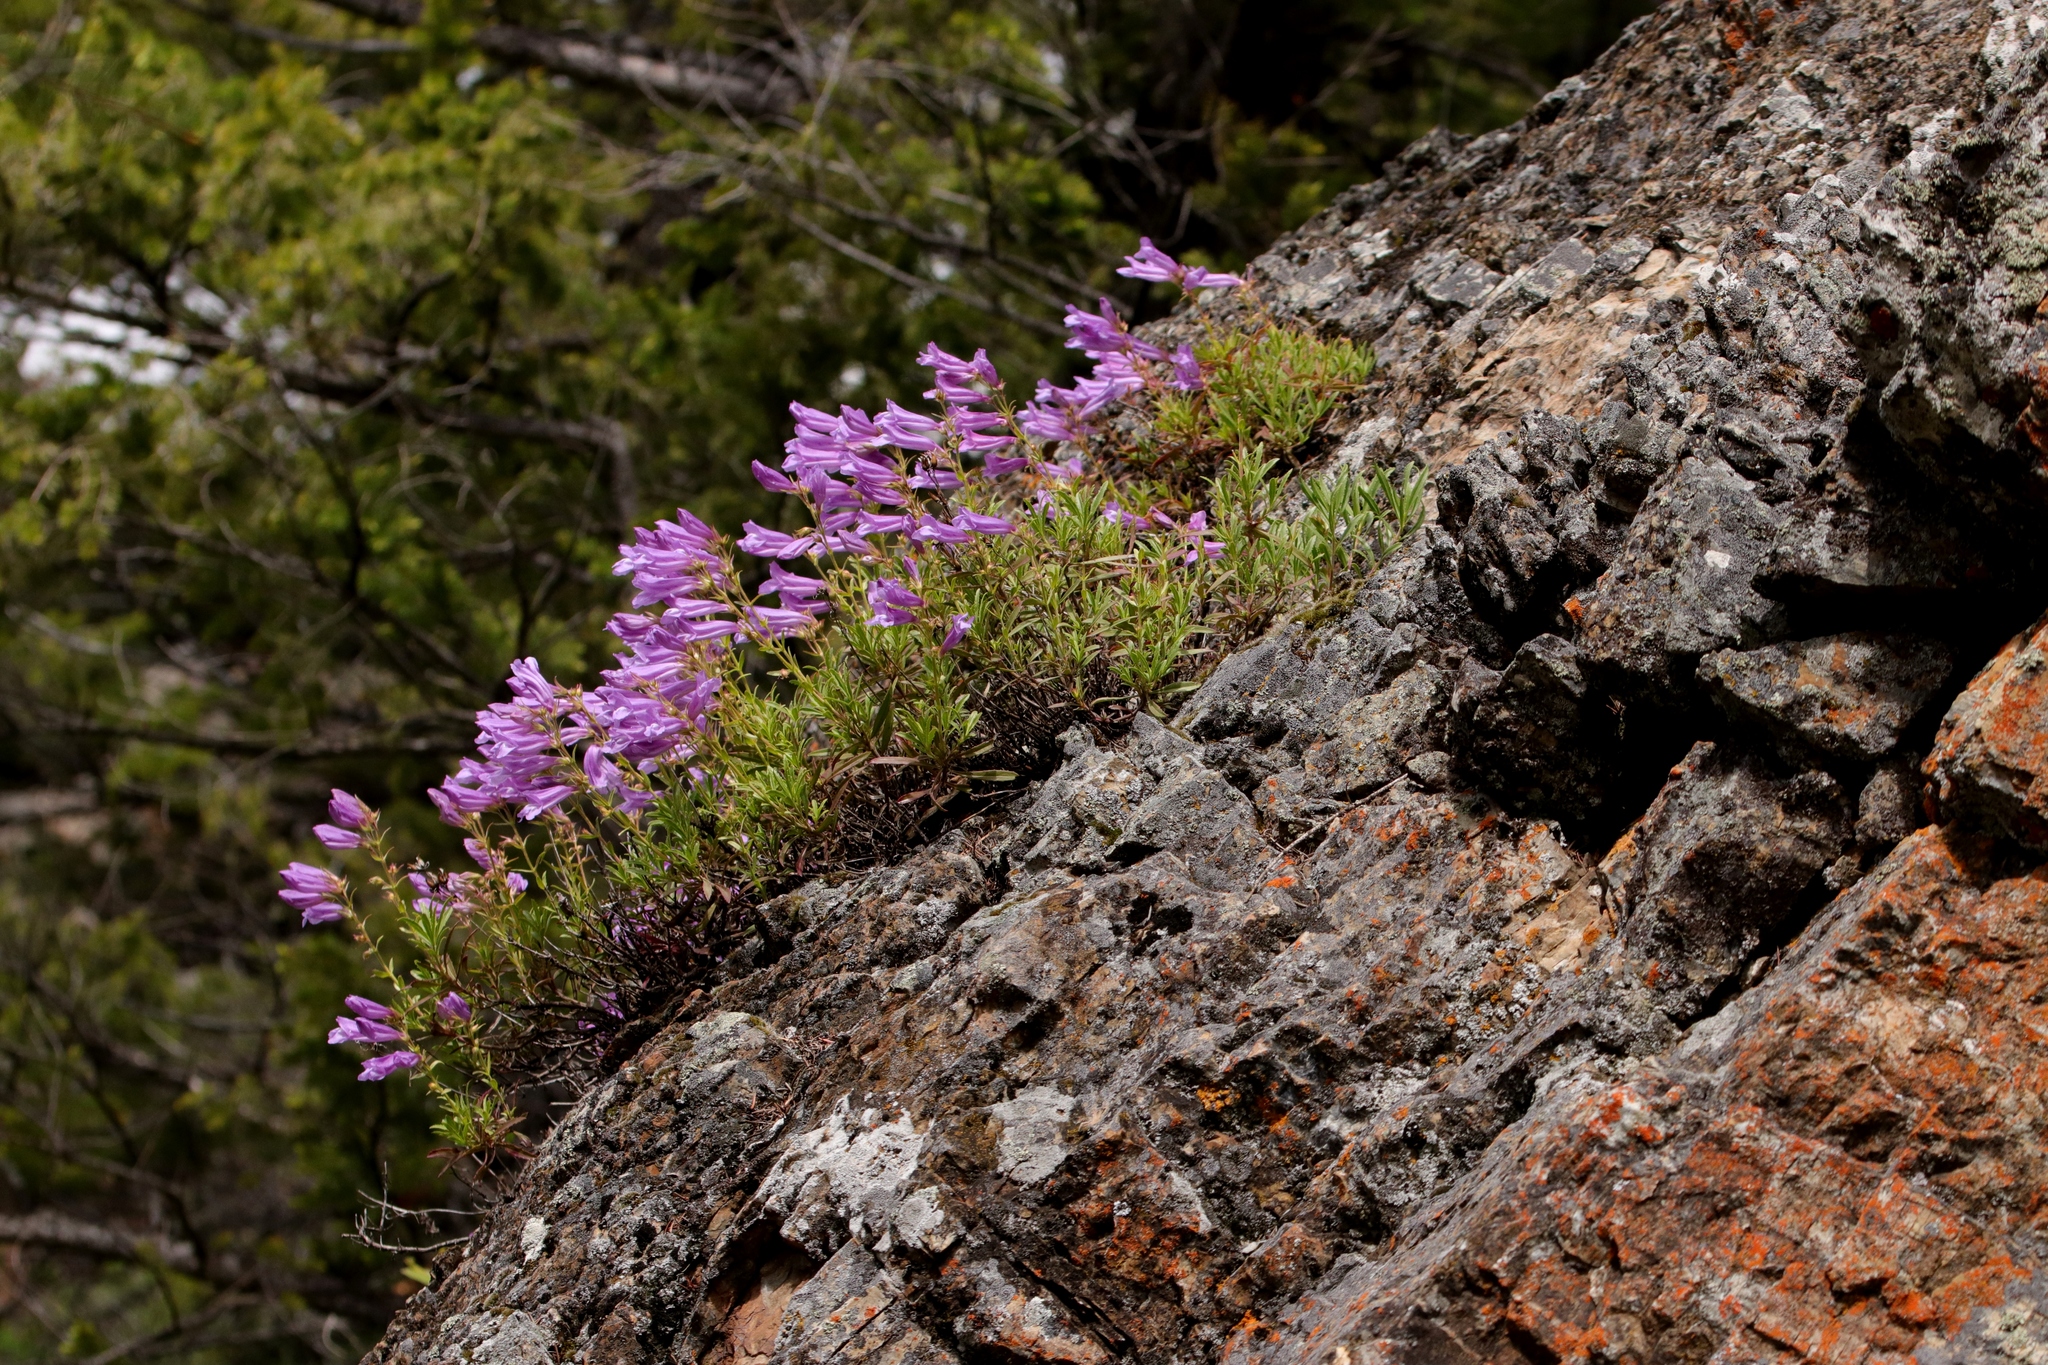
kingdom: Plantae
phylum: Tracheophyta
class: Magnoliopsida
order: Lamiales
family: Plantaginaceae
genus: Penstemon
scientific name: Penstemon fruticosus
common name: Bush penstemon
